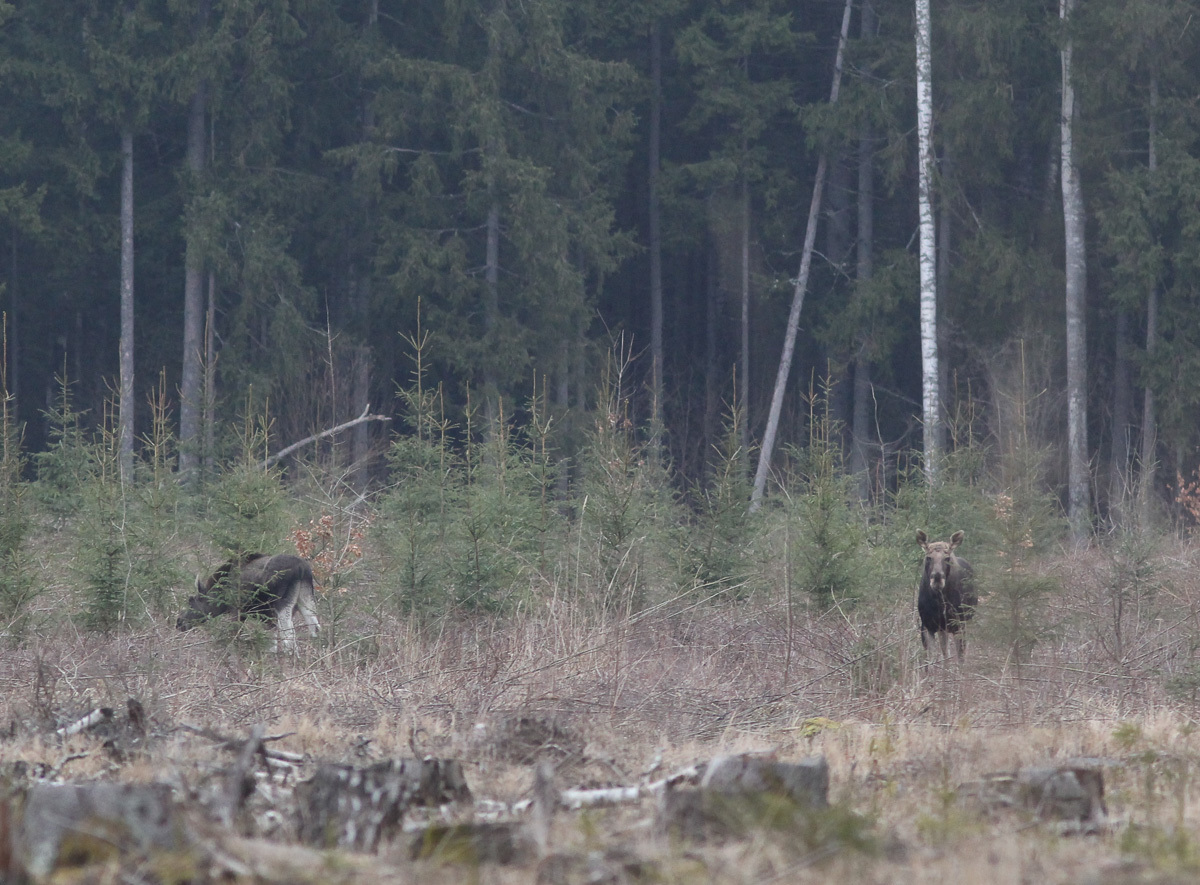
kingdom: Animalia
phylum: Chordata
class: Mammalia
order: Artiodactyla
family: Cervidae
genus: Alces
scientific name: Alces alces
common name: Moose
